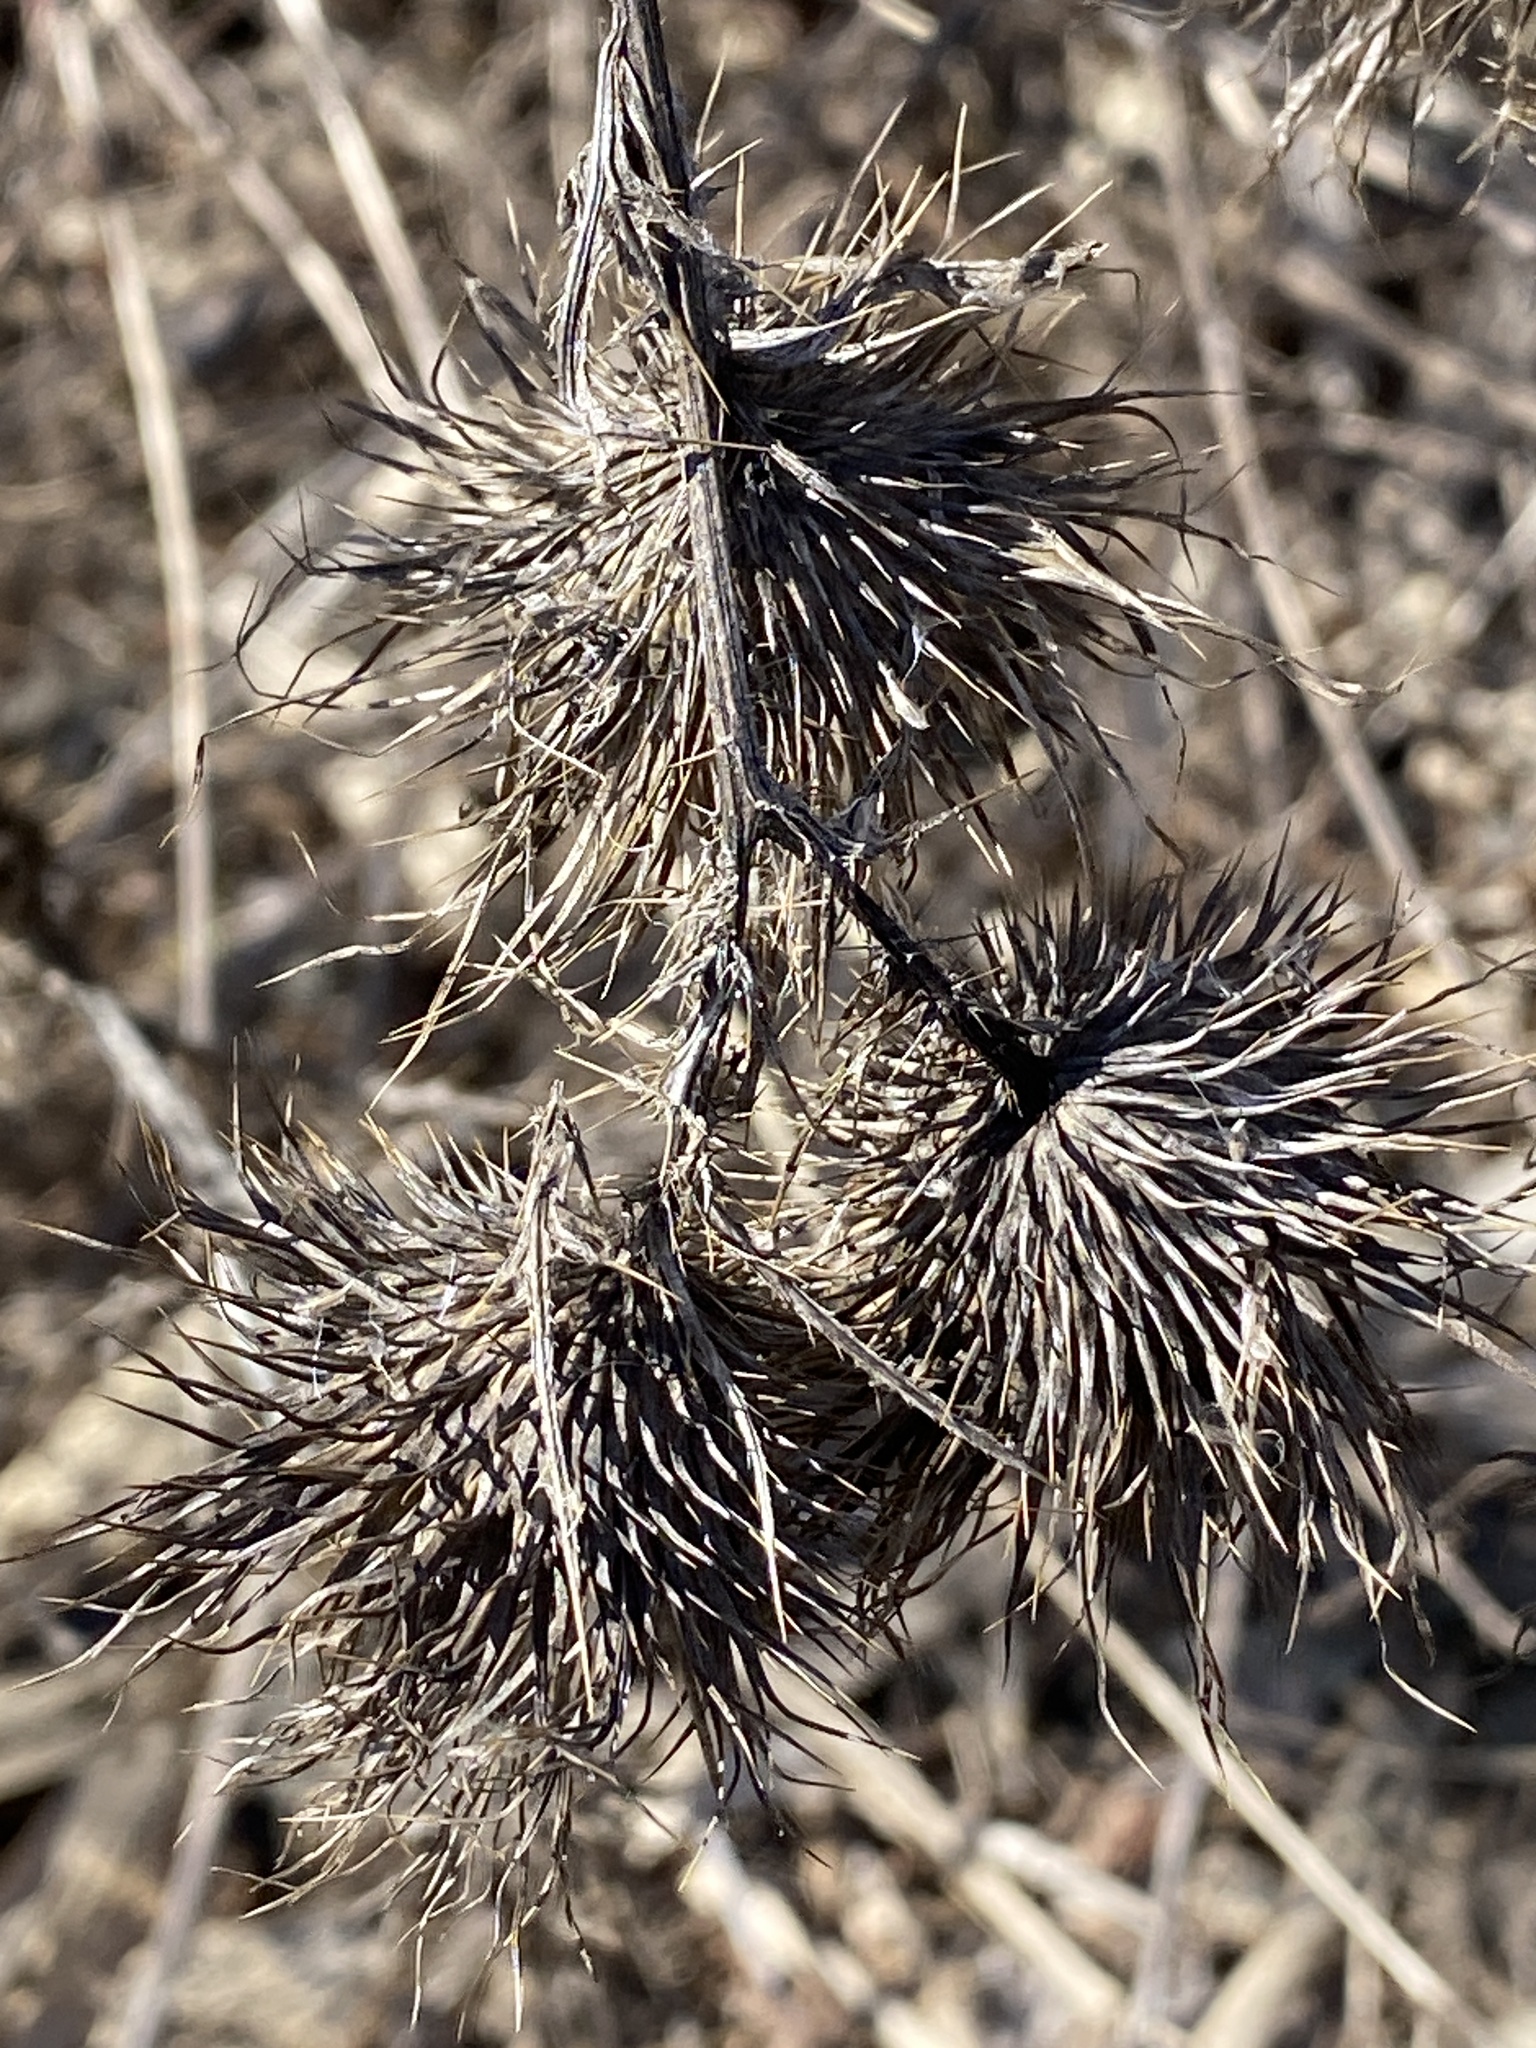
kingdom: Plantae
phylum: Tracheophyta
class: Magnoliopsida
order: Asterales
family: Asteraceae
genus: Cirsium
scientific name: Cirsium vulgare
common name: Bull thistle
